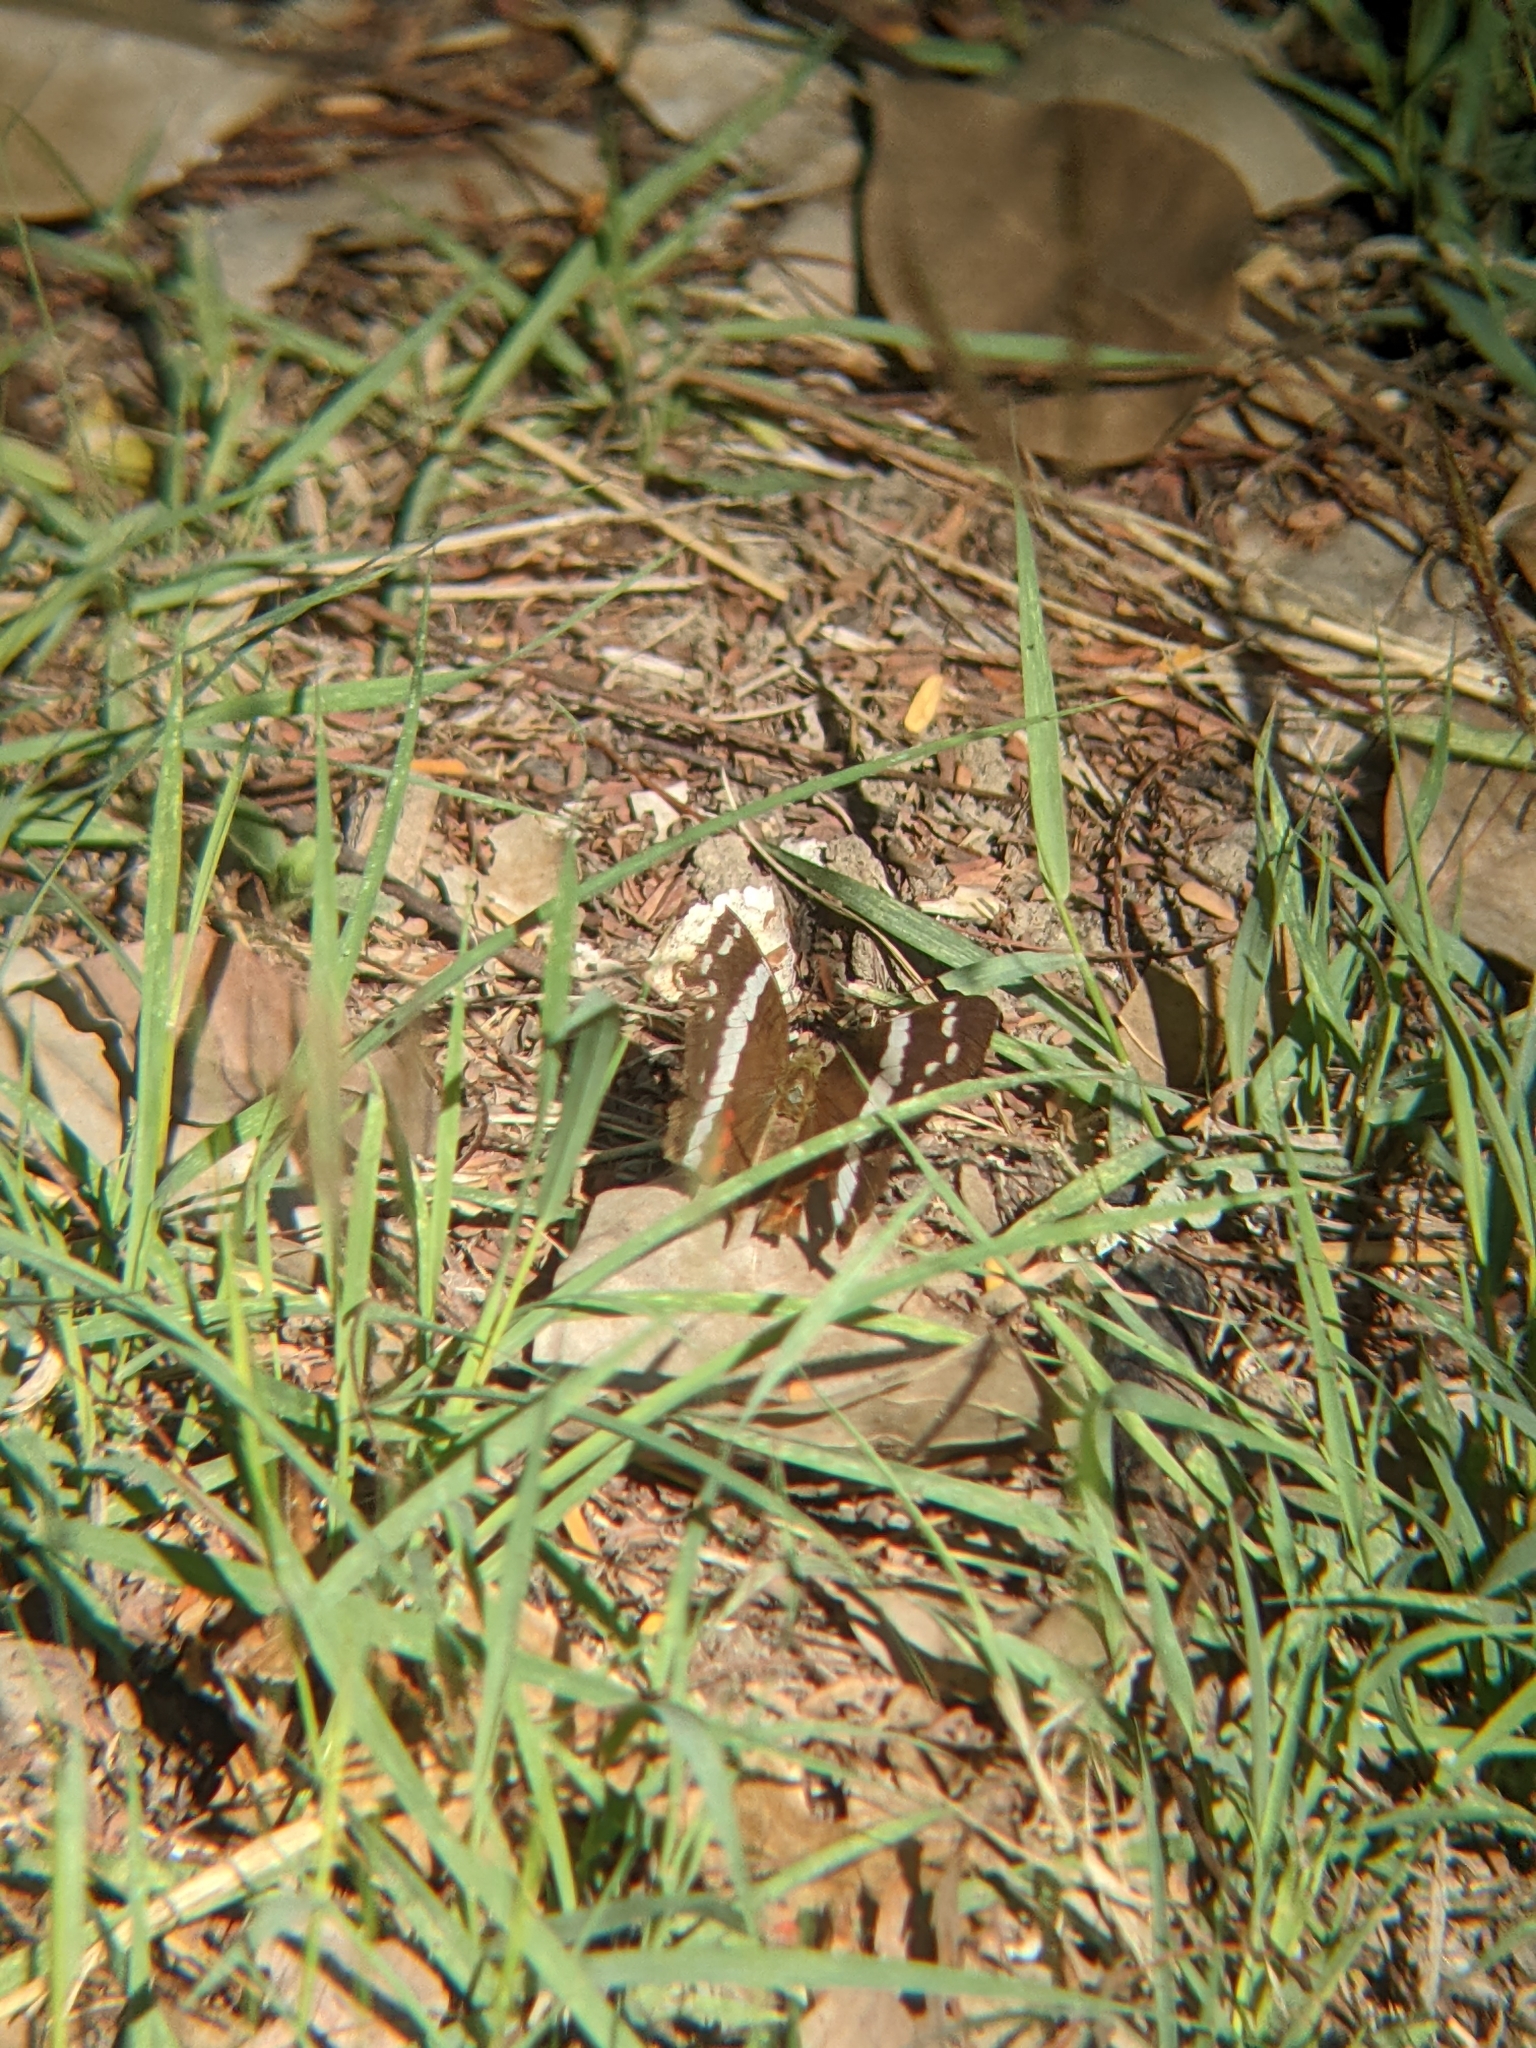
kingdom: Animalia
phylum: Arthropoda
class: Insecta
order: Lepidoptera
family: Nymphalidae
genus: Anartia
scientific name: Anartia fatima
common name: Banded peacock
